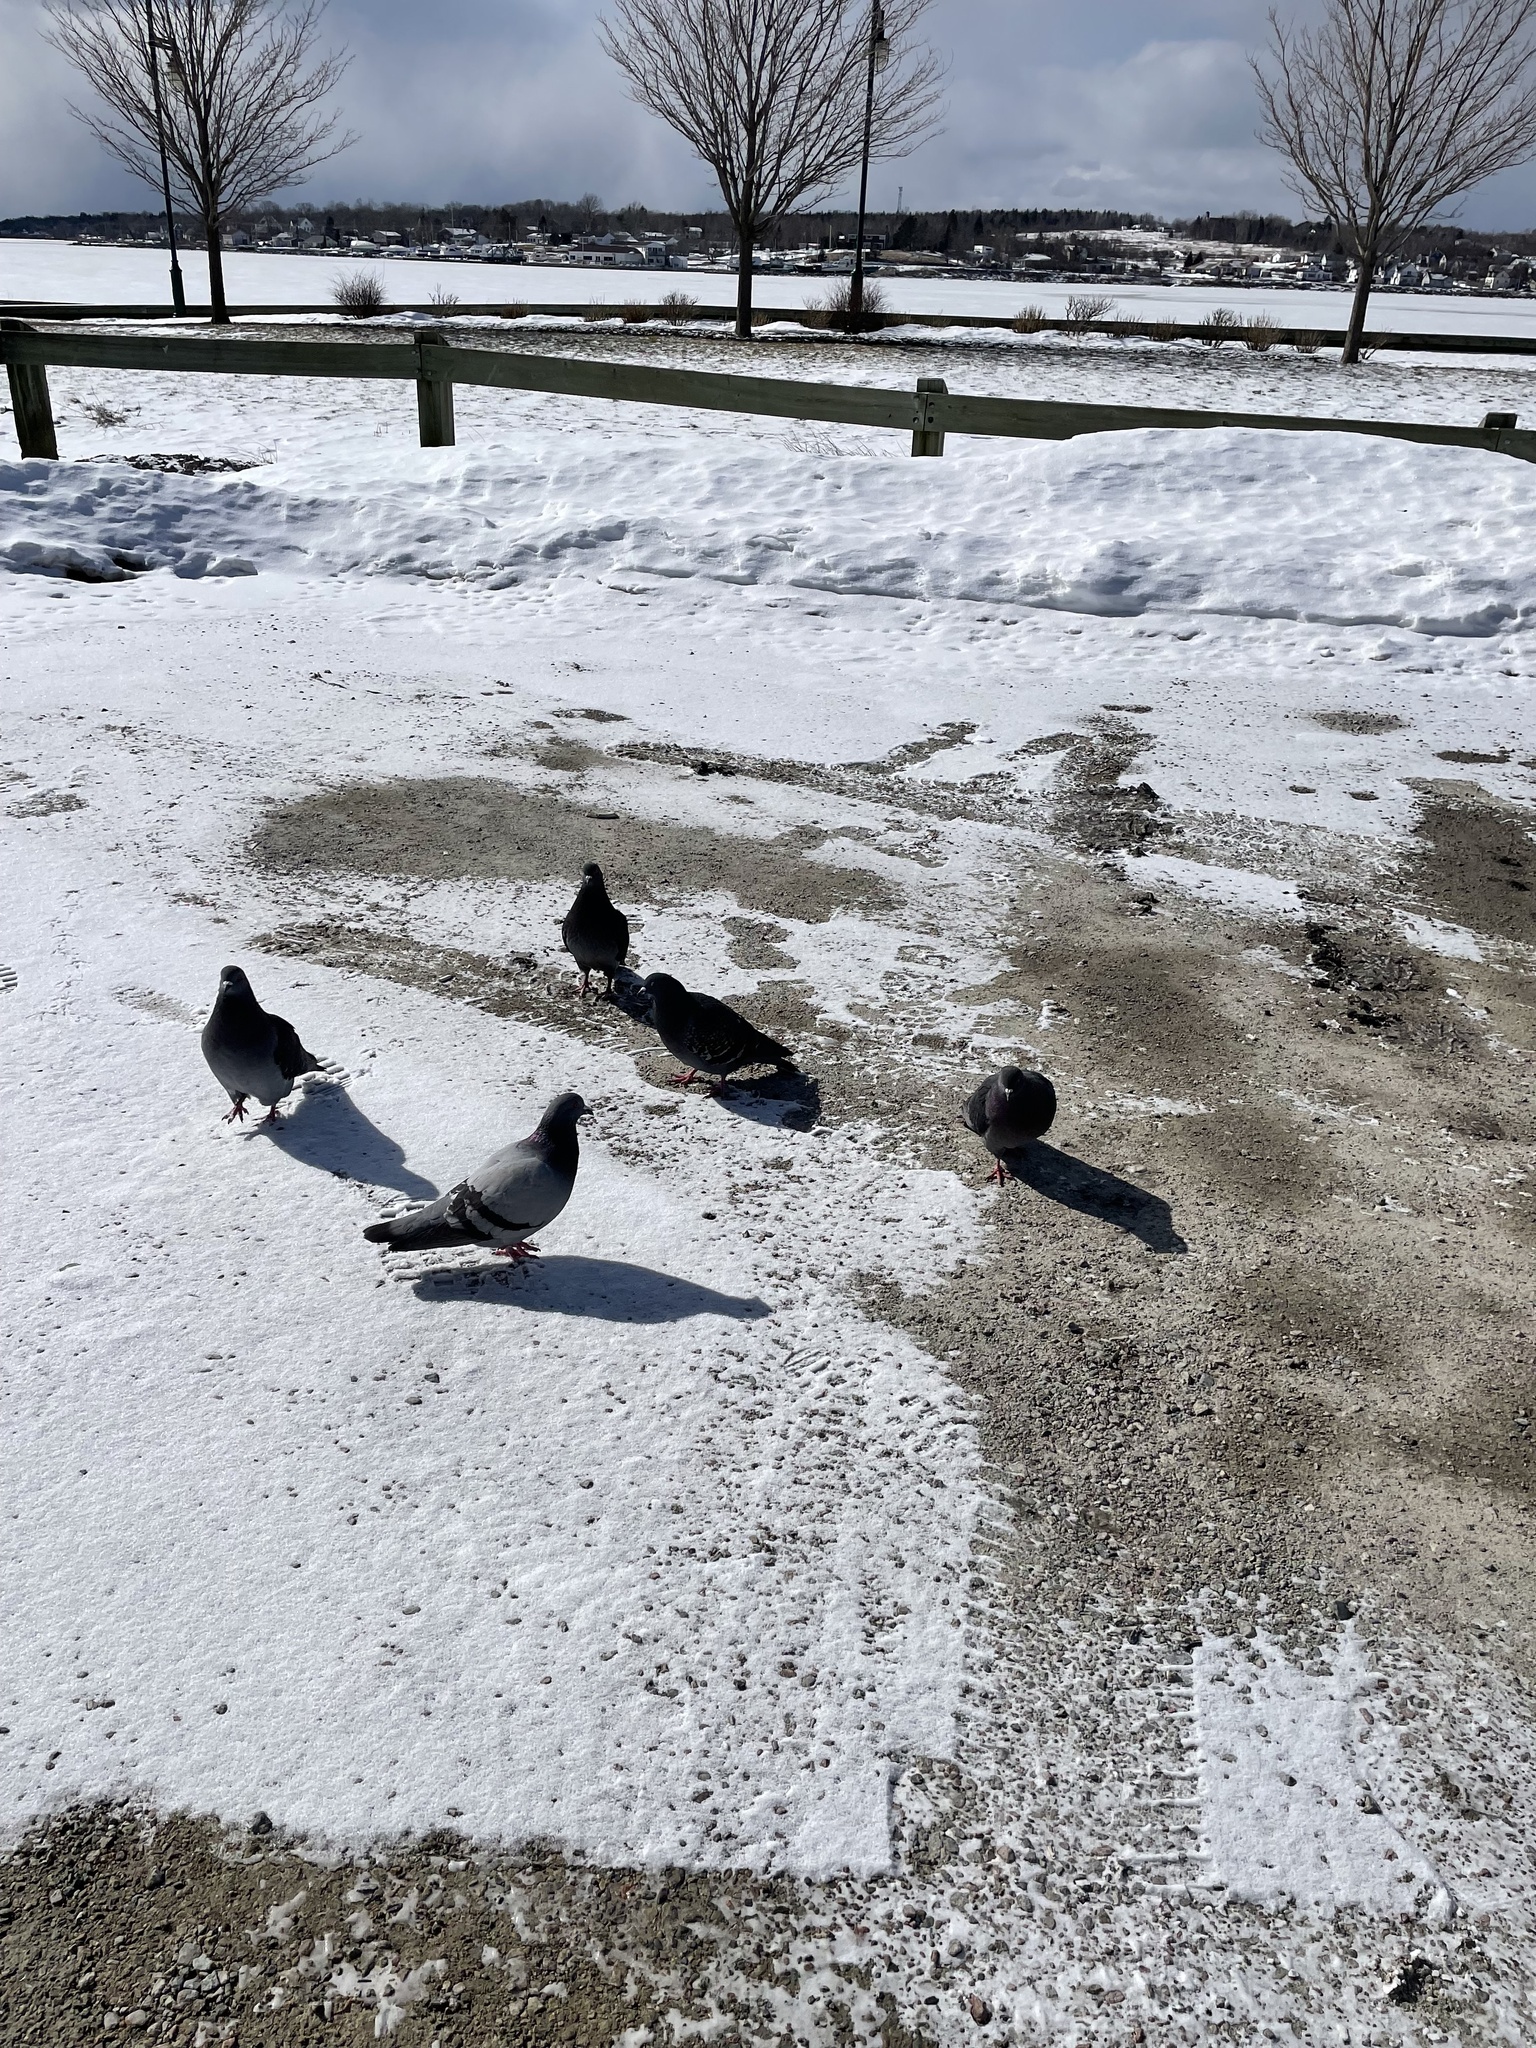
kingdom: Animalia
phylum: Chordata
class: Aves
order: Columbiformes
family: Columbidae
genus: Columba
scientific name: Columba livia
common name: Rock pigeon
